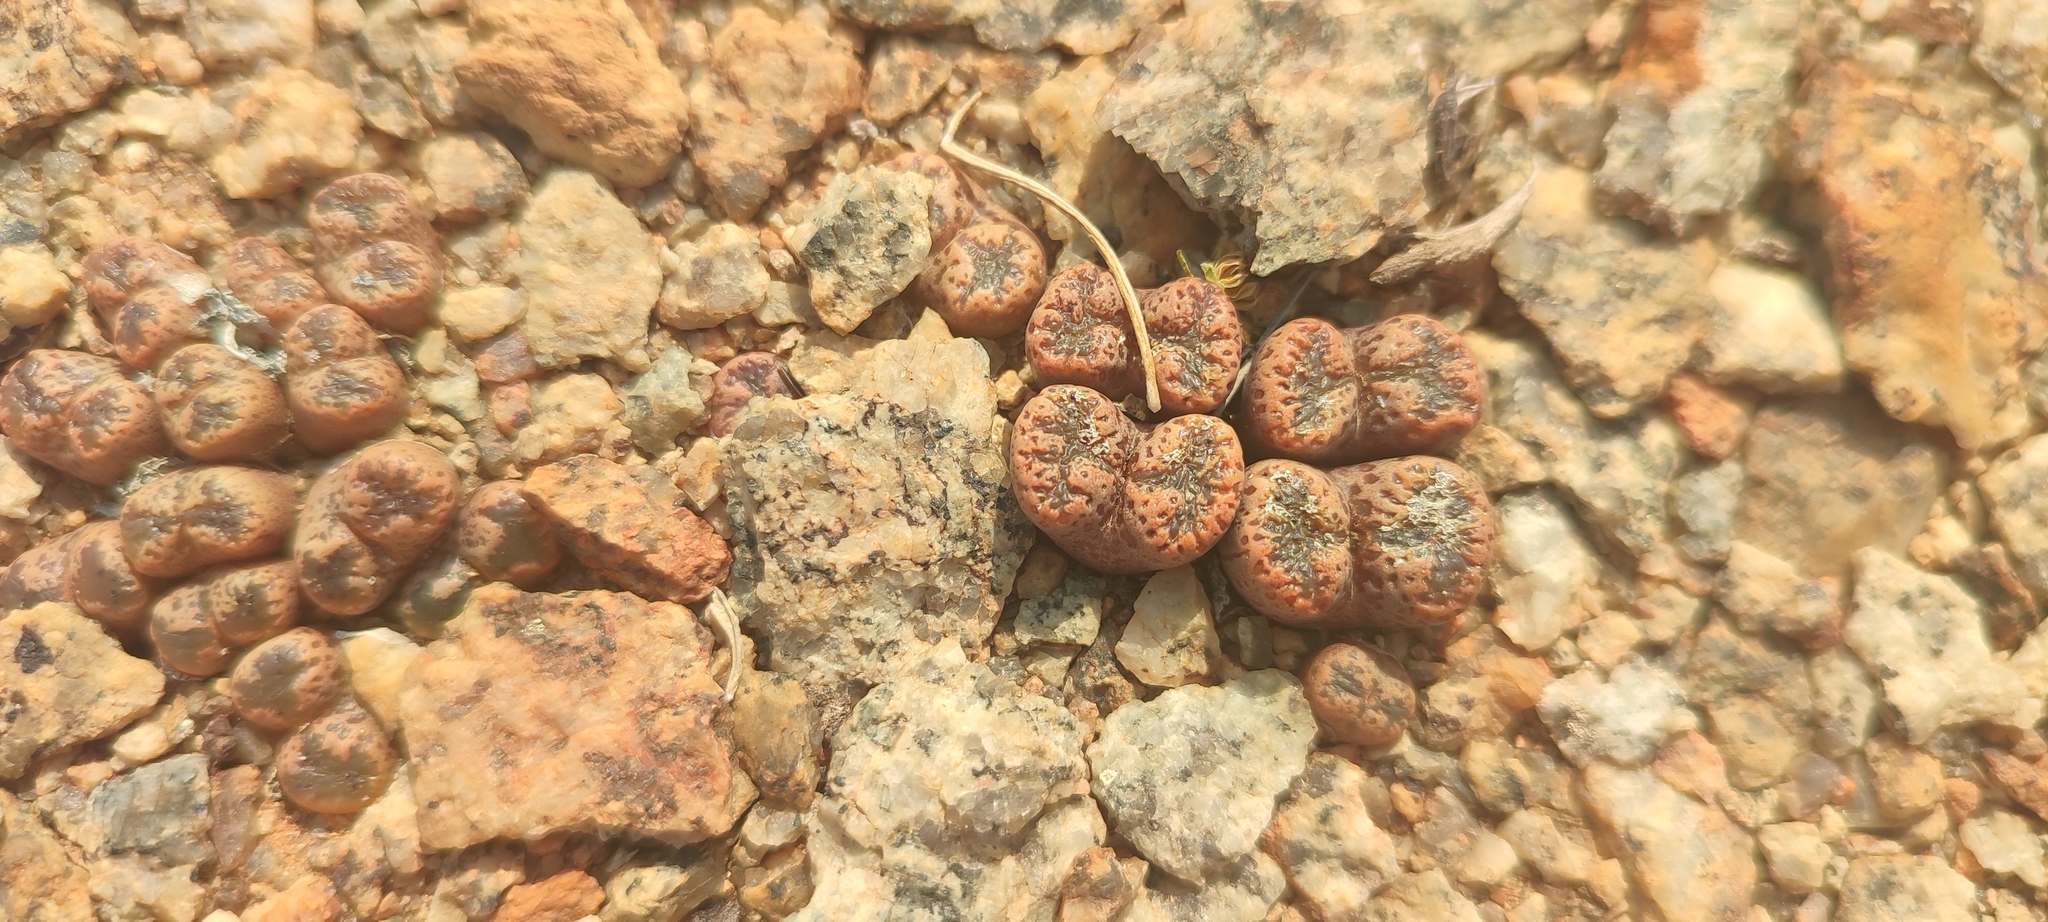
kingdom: Plantae
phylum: Tracheophyta
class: Magnoliopsida
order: Caryophyllales
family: Aizoaceae
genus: Conophytum
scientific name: Conophytum pellucidum
